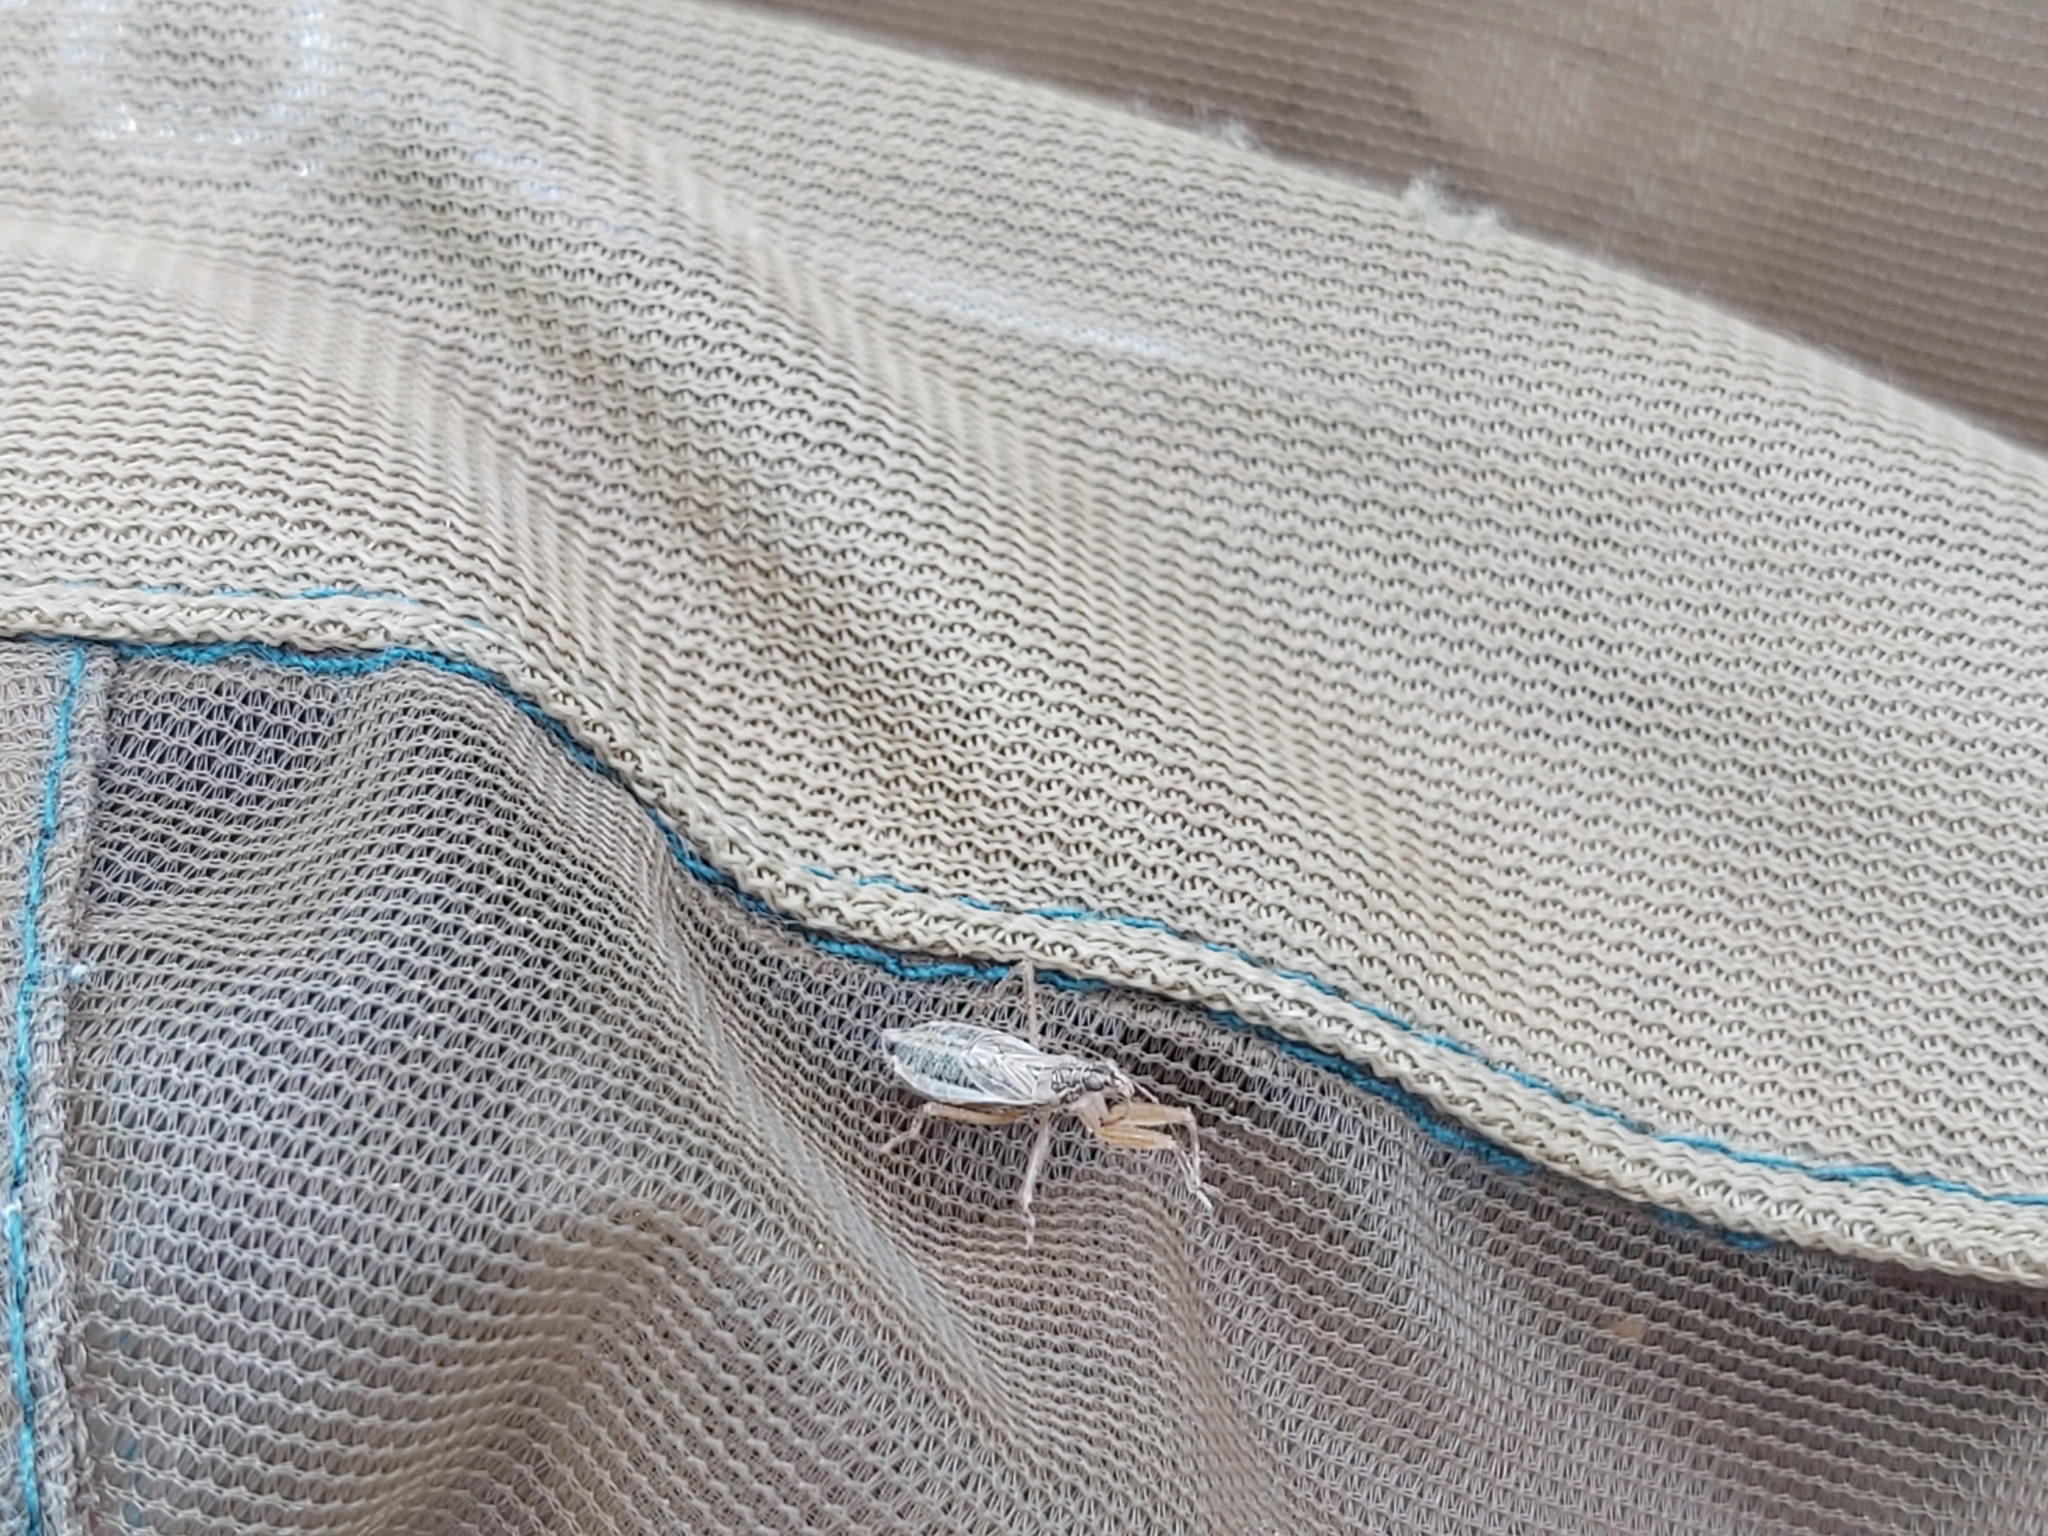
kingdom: Animalia
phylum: Arthropoda
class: Insecta
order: Hemiptera
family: Nabidae
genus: Nabis
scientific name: Nabis flavomarginatus
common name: Broad damselbug
